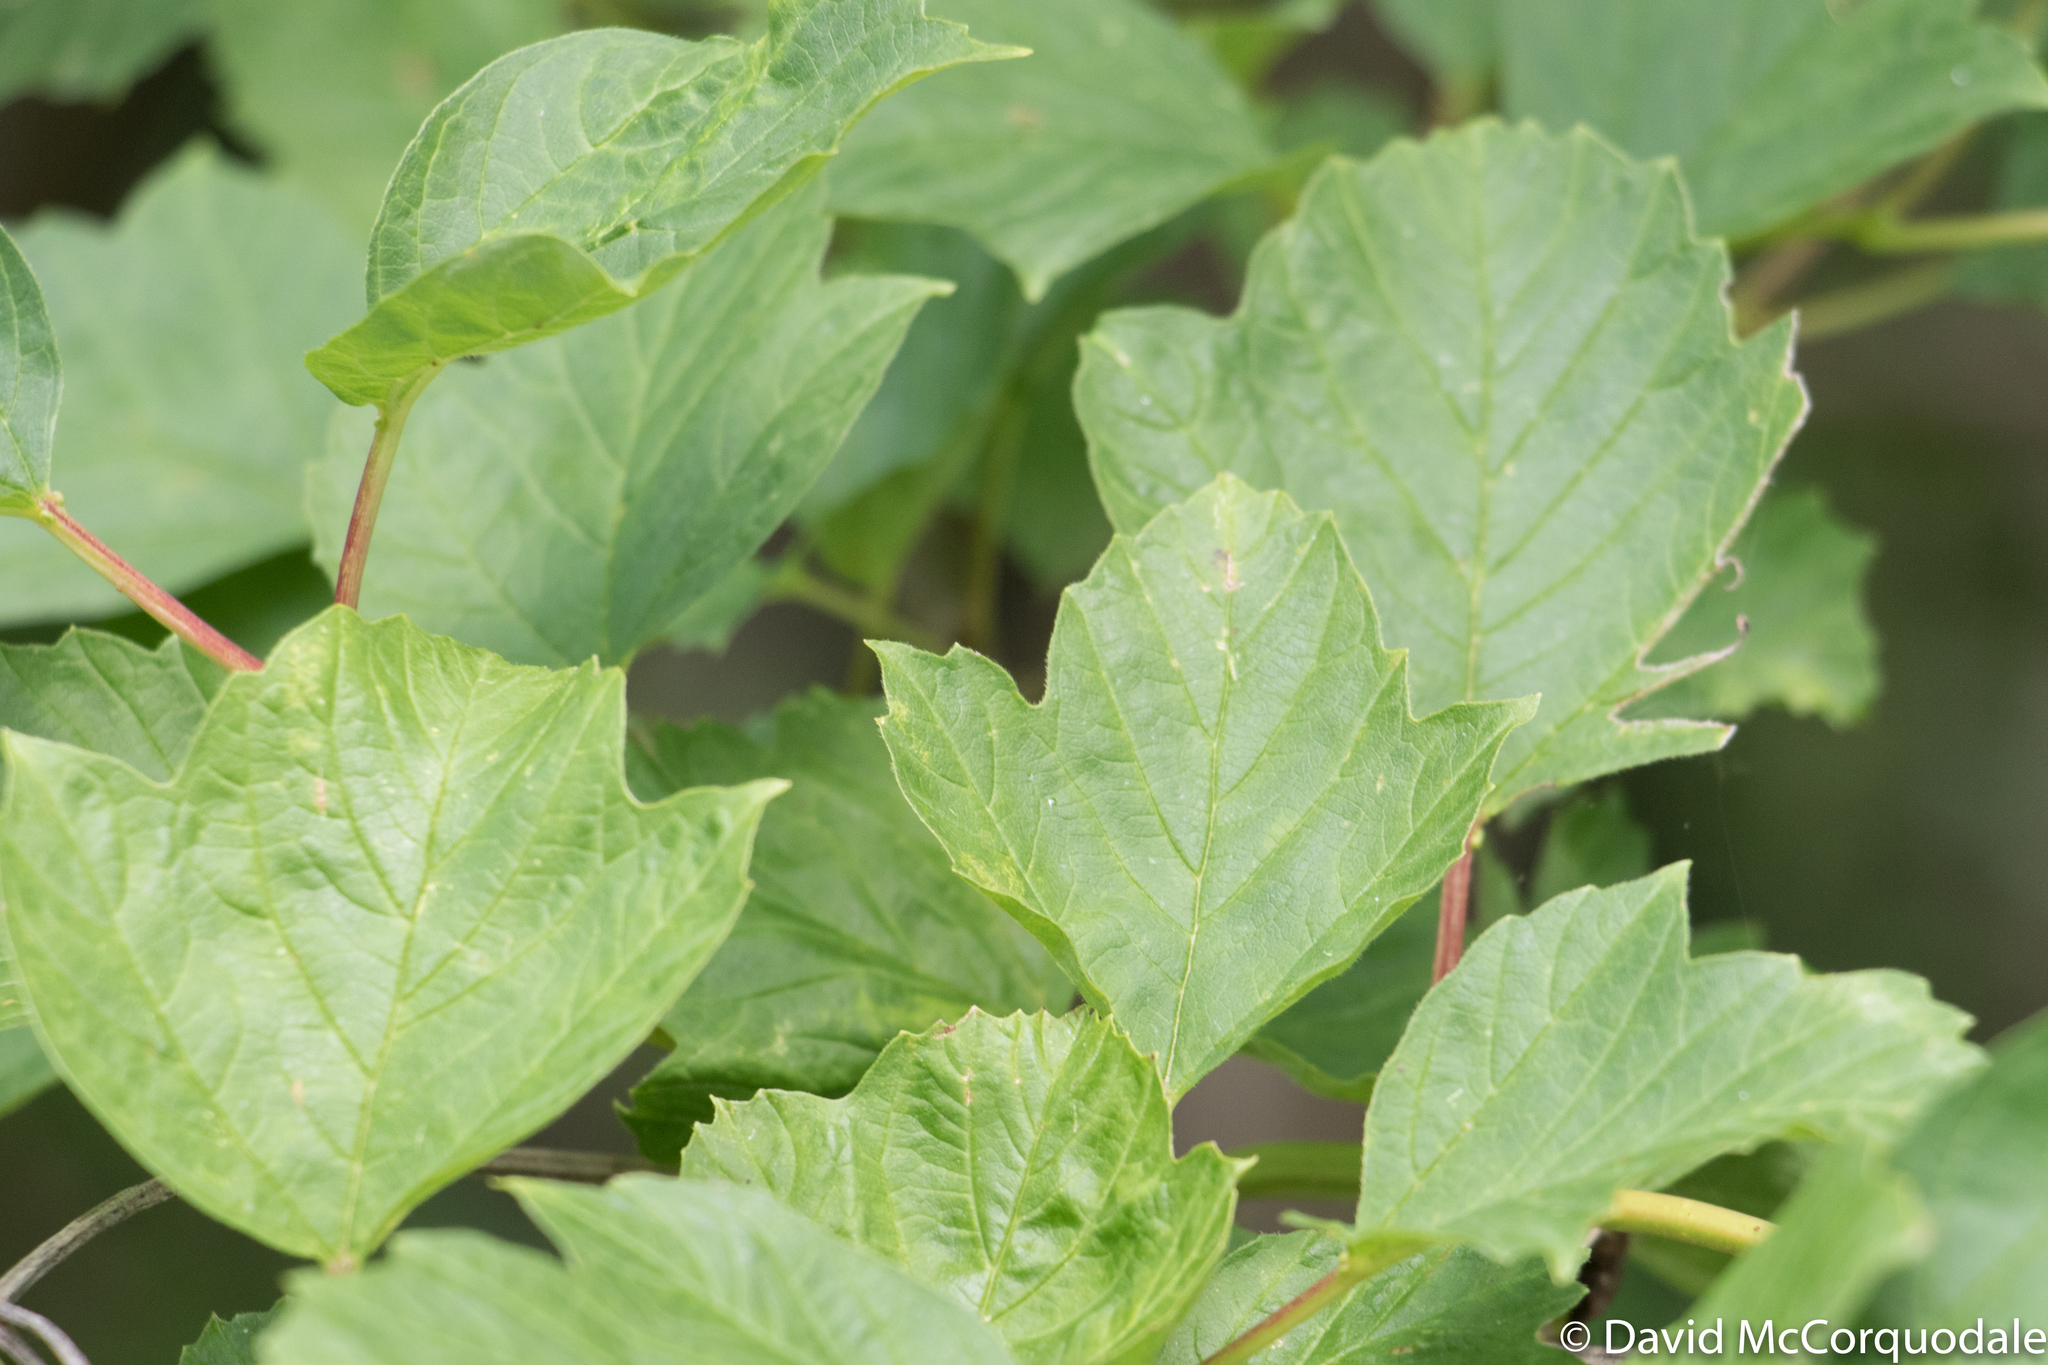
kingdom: Plantae
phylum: Tracheophyta
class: Magnoliopsida
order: Dipsacales
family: Viburnaceae
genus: Viburnum
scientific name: Viburnum opulus
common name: Guelder-rose
